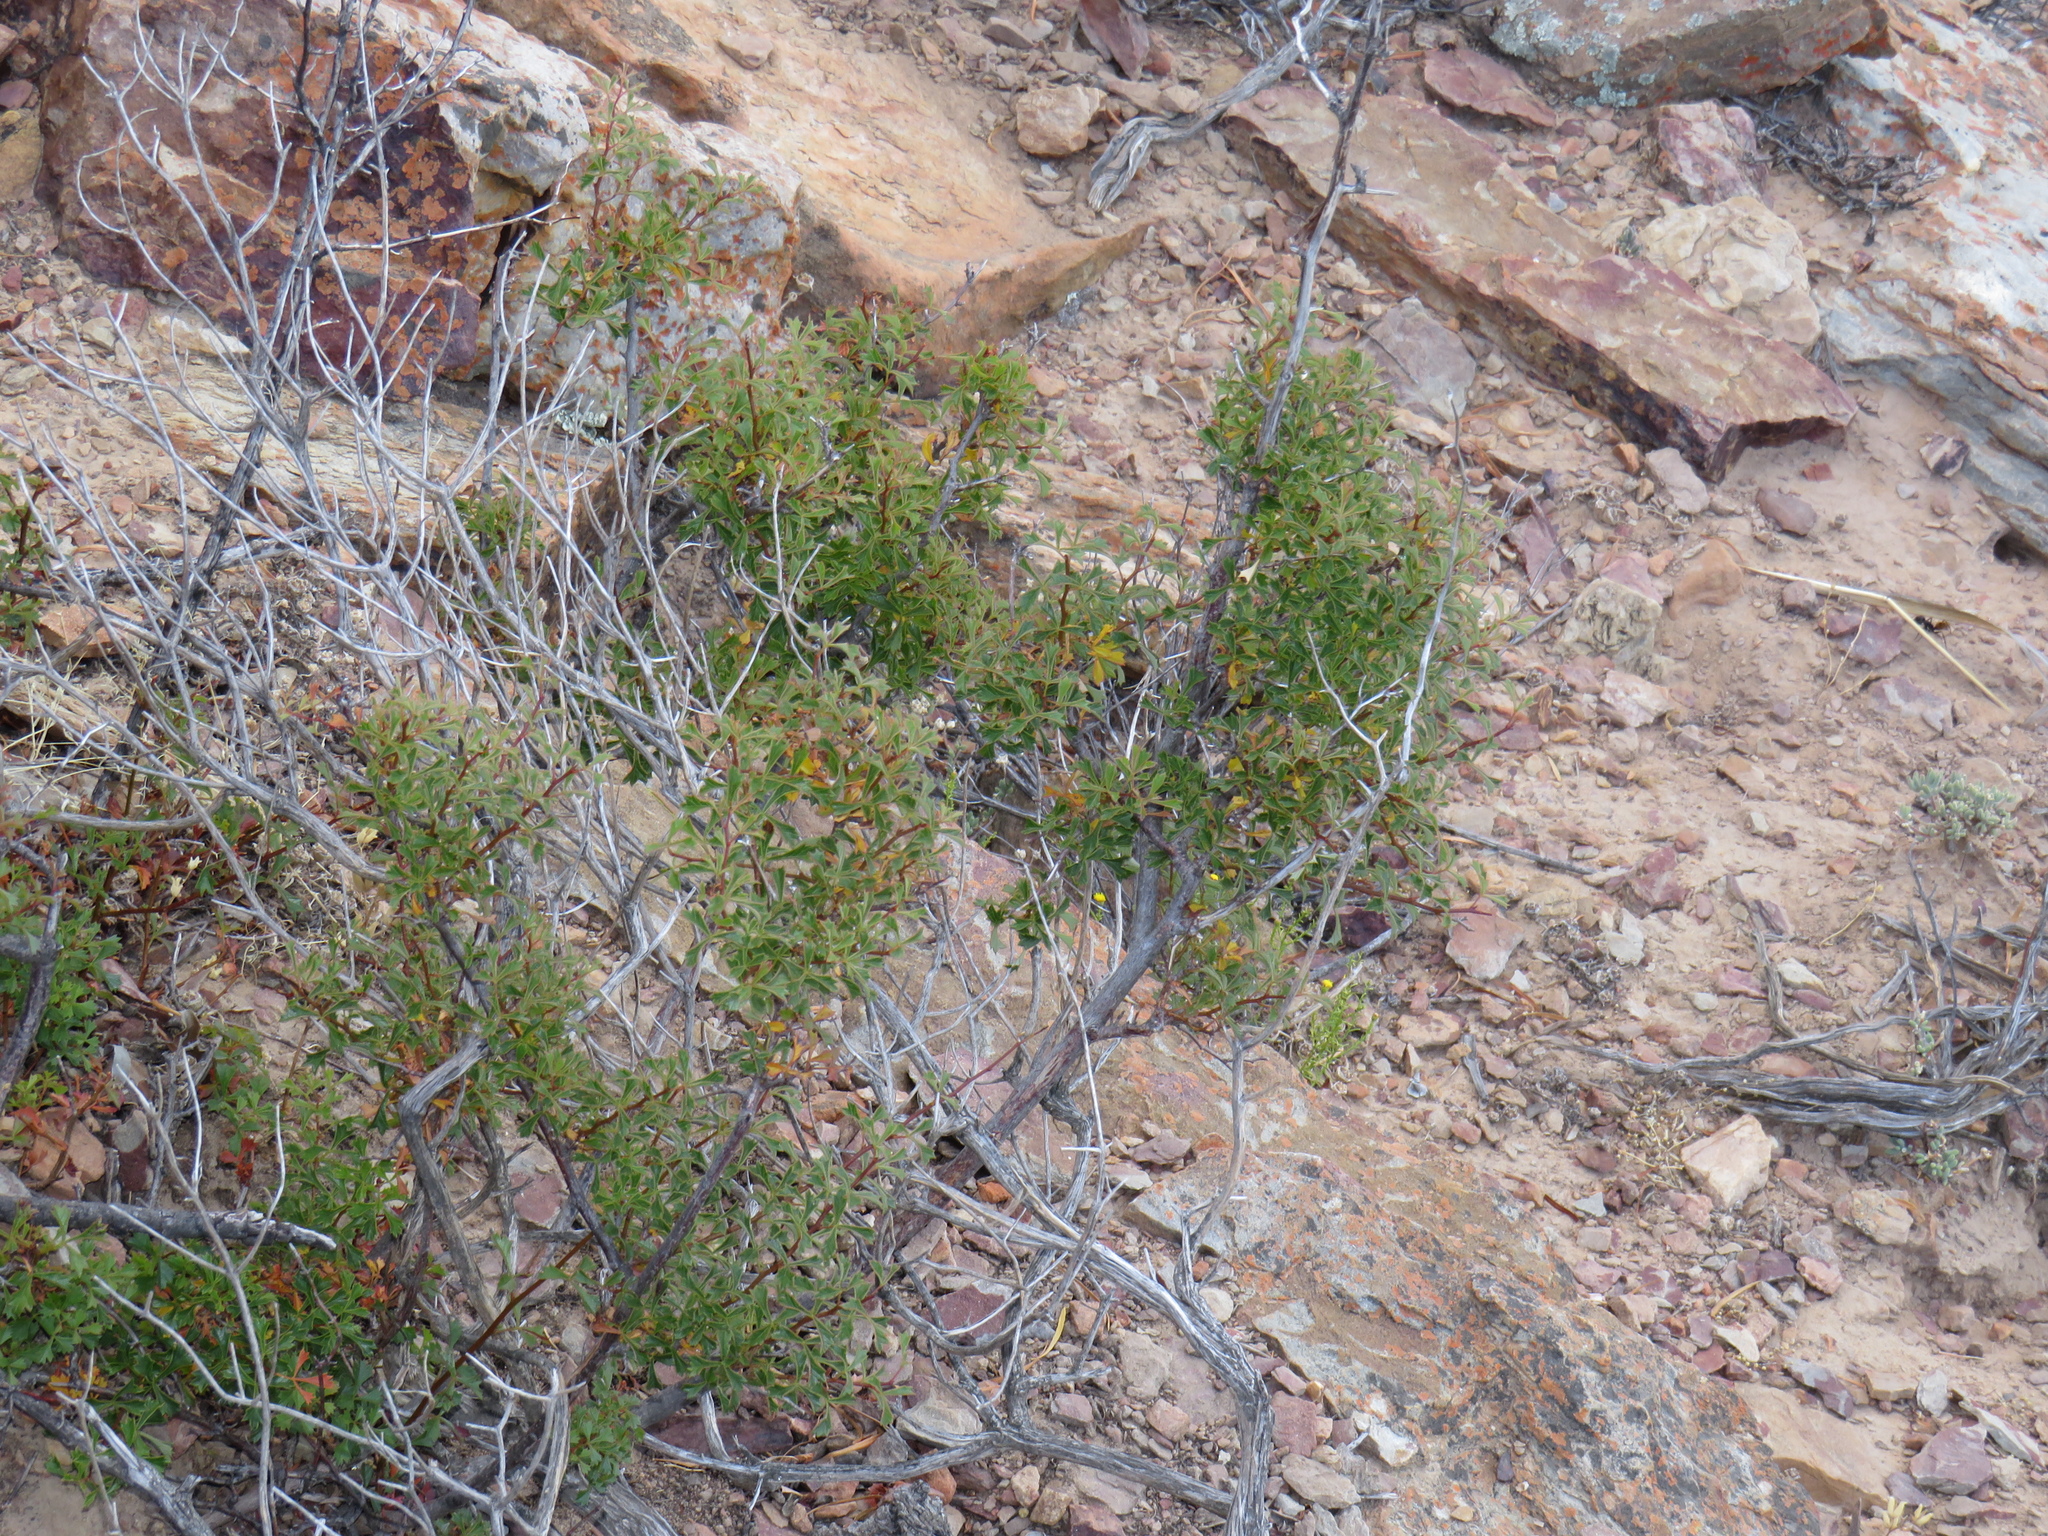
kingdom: Plantae
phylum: Tracheophyta
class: Magnoliopsida
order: Sapindales
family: Anacardiaceae
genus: Searsia
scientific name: Searsia dissecta
